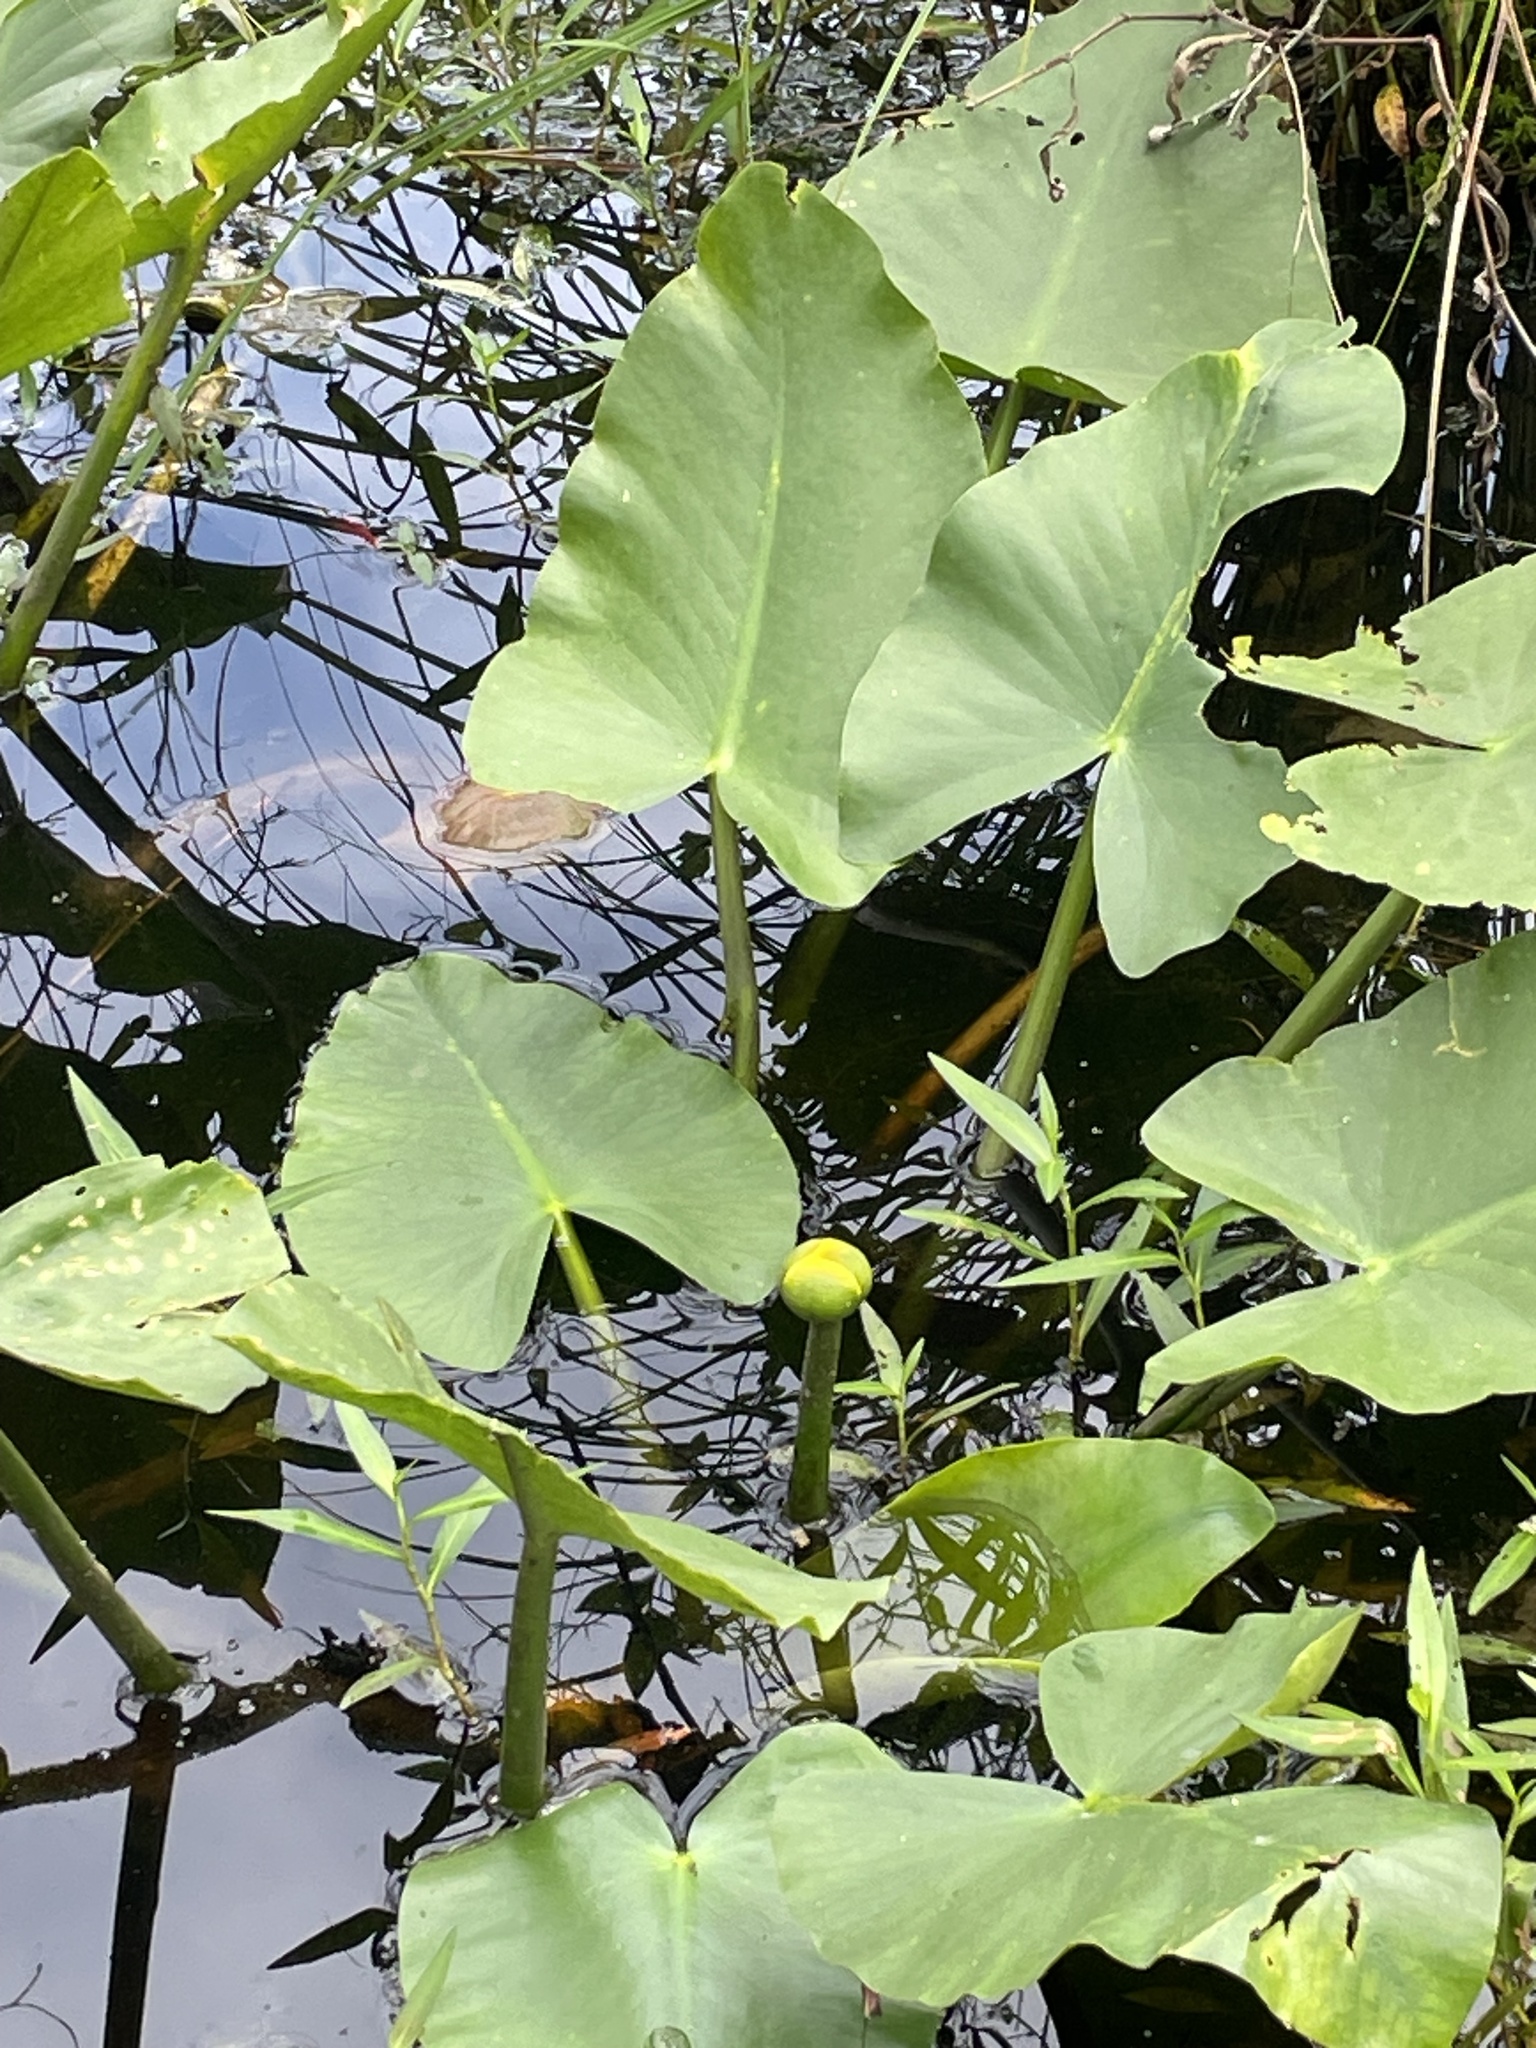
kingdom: Plantae
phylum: Tracheophyta
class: Magnoliopsida
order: Nymphaeales
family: Nymphaeaceae
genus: Nuphar
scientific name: Nuphar advena
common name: Spatter-dock
